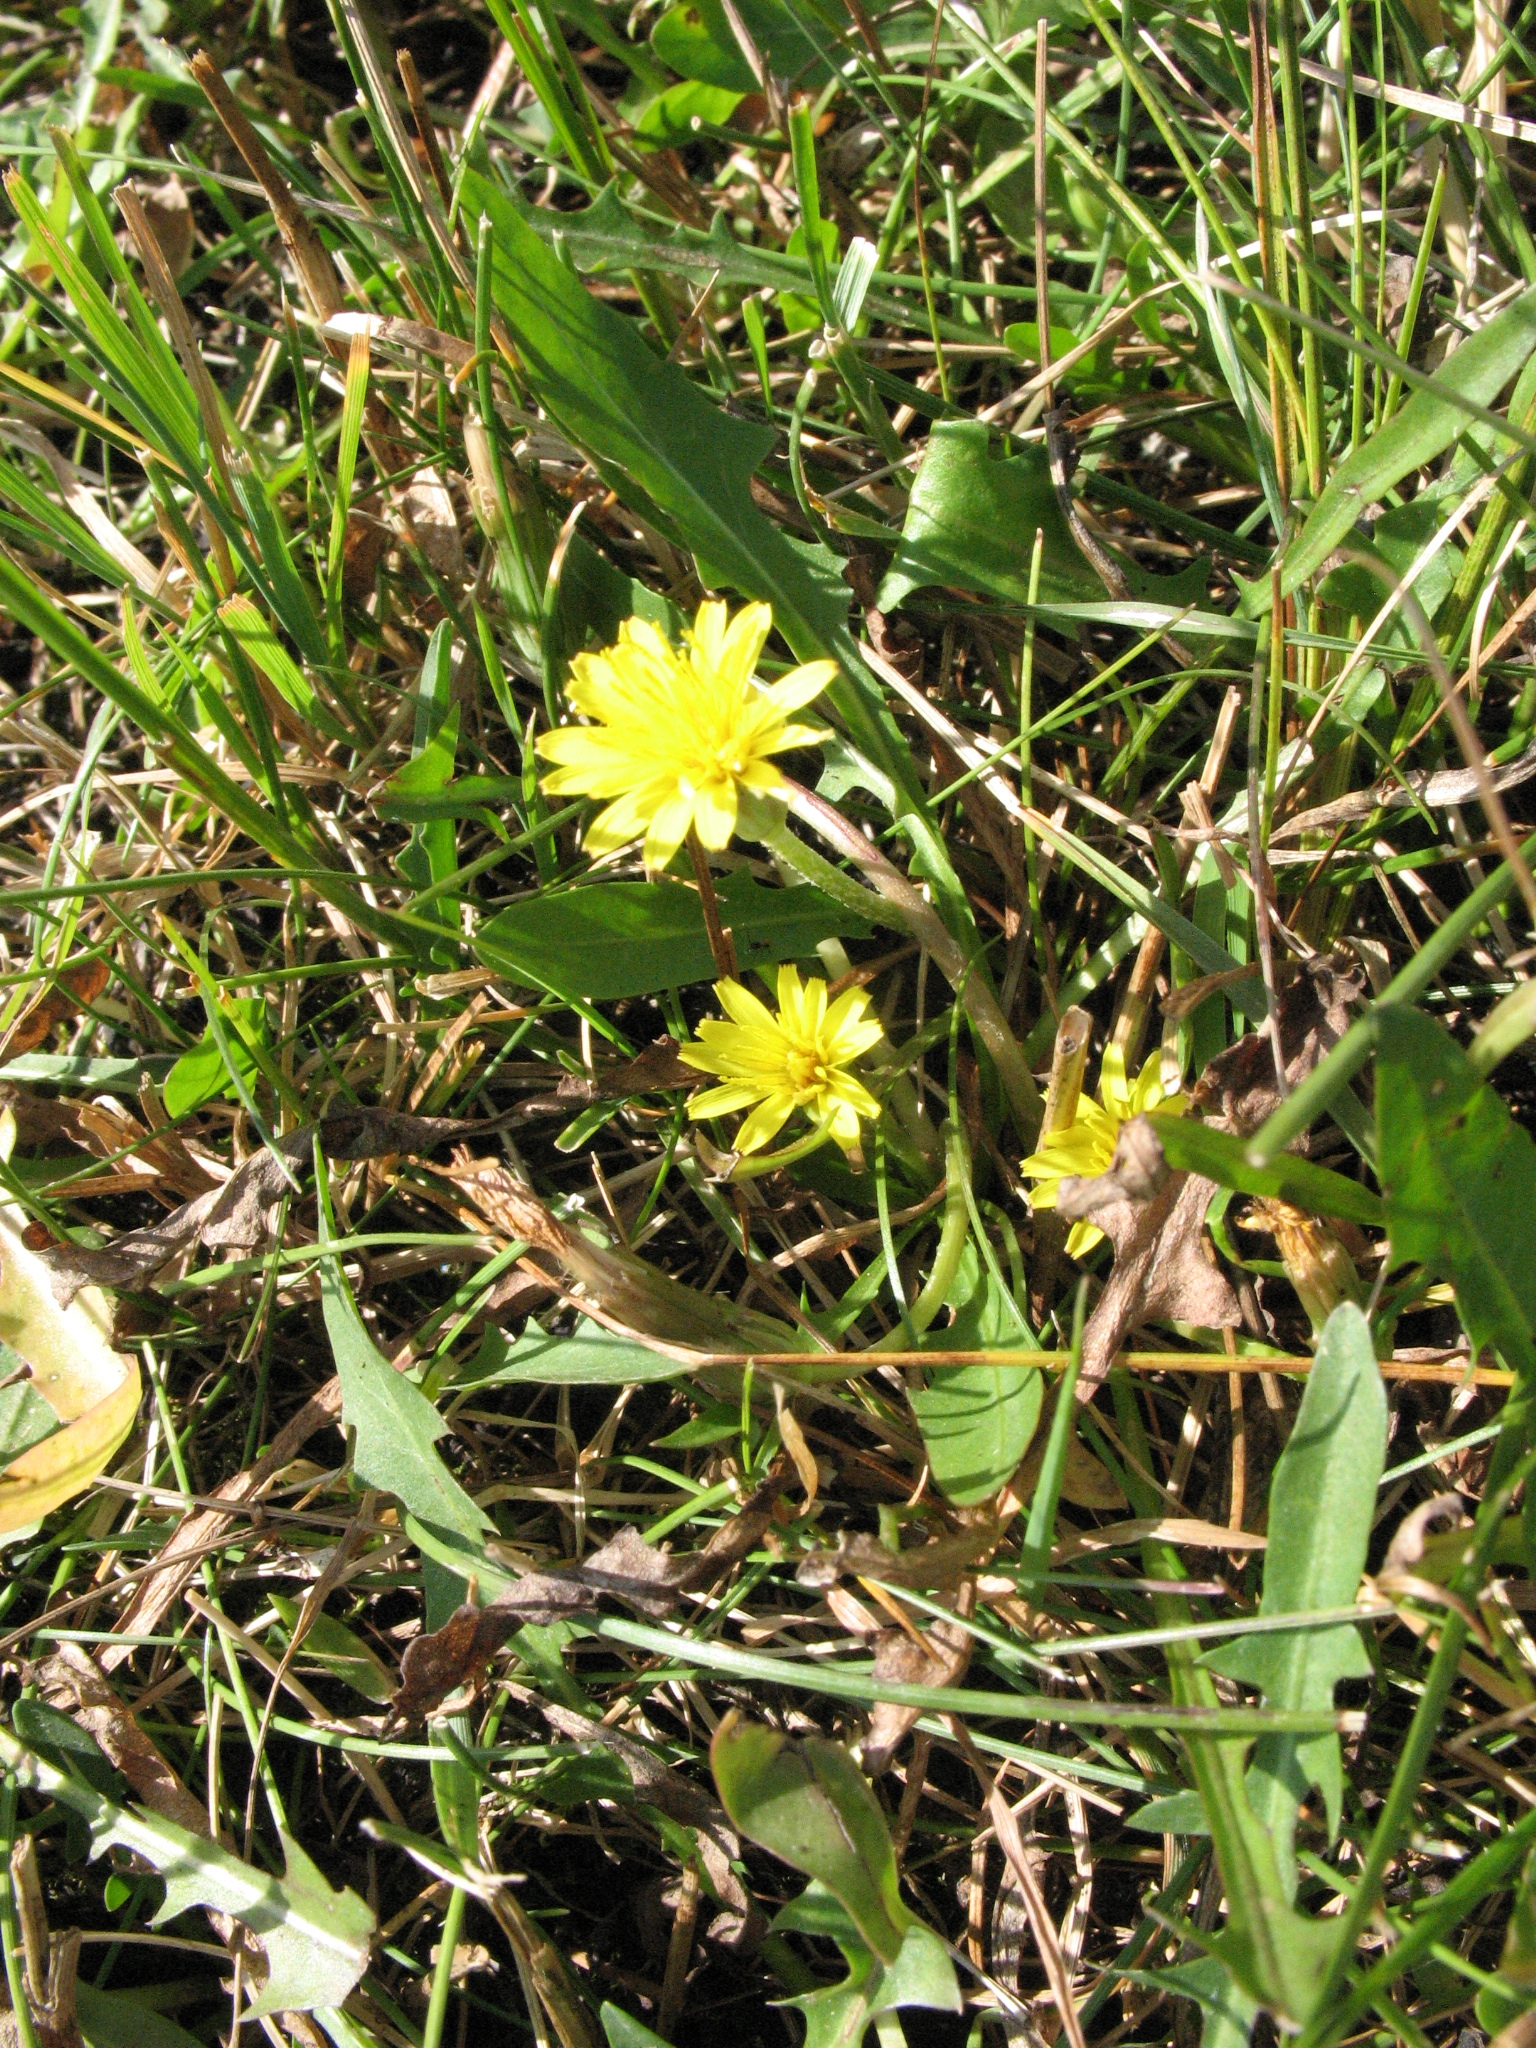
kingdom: Plantae
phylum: Tracheophyta
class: Magnoliopsida
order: Asterales
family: Asteraceae
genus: Taraxacum
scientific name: Taraxacum bessarabicum
